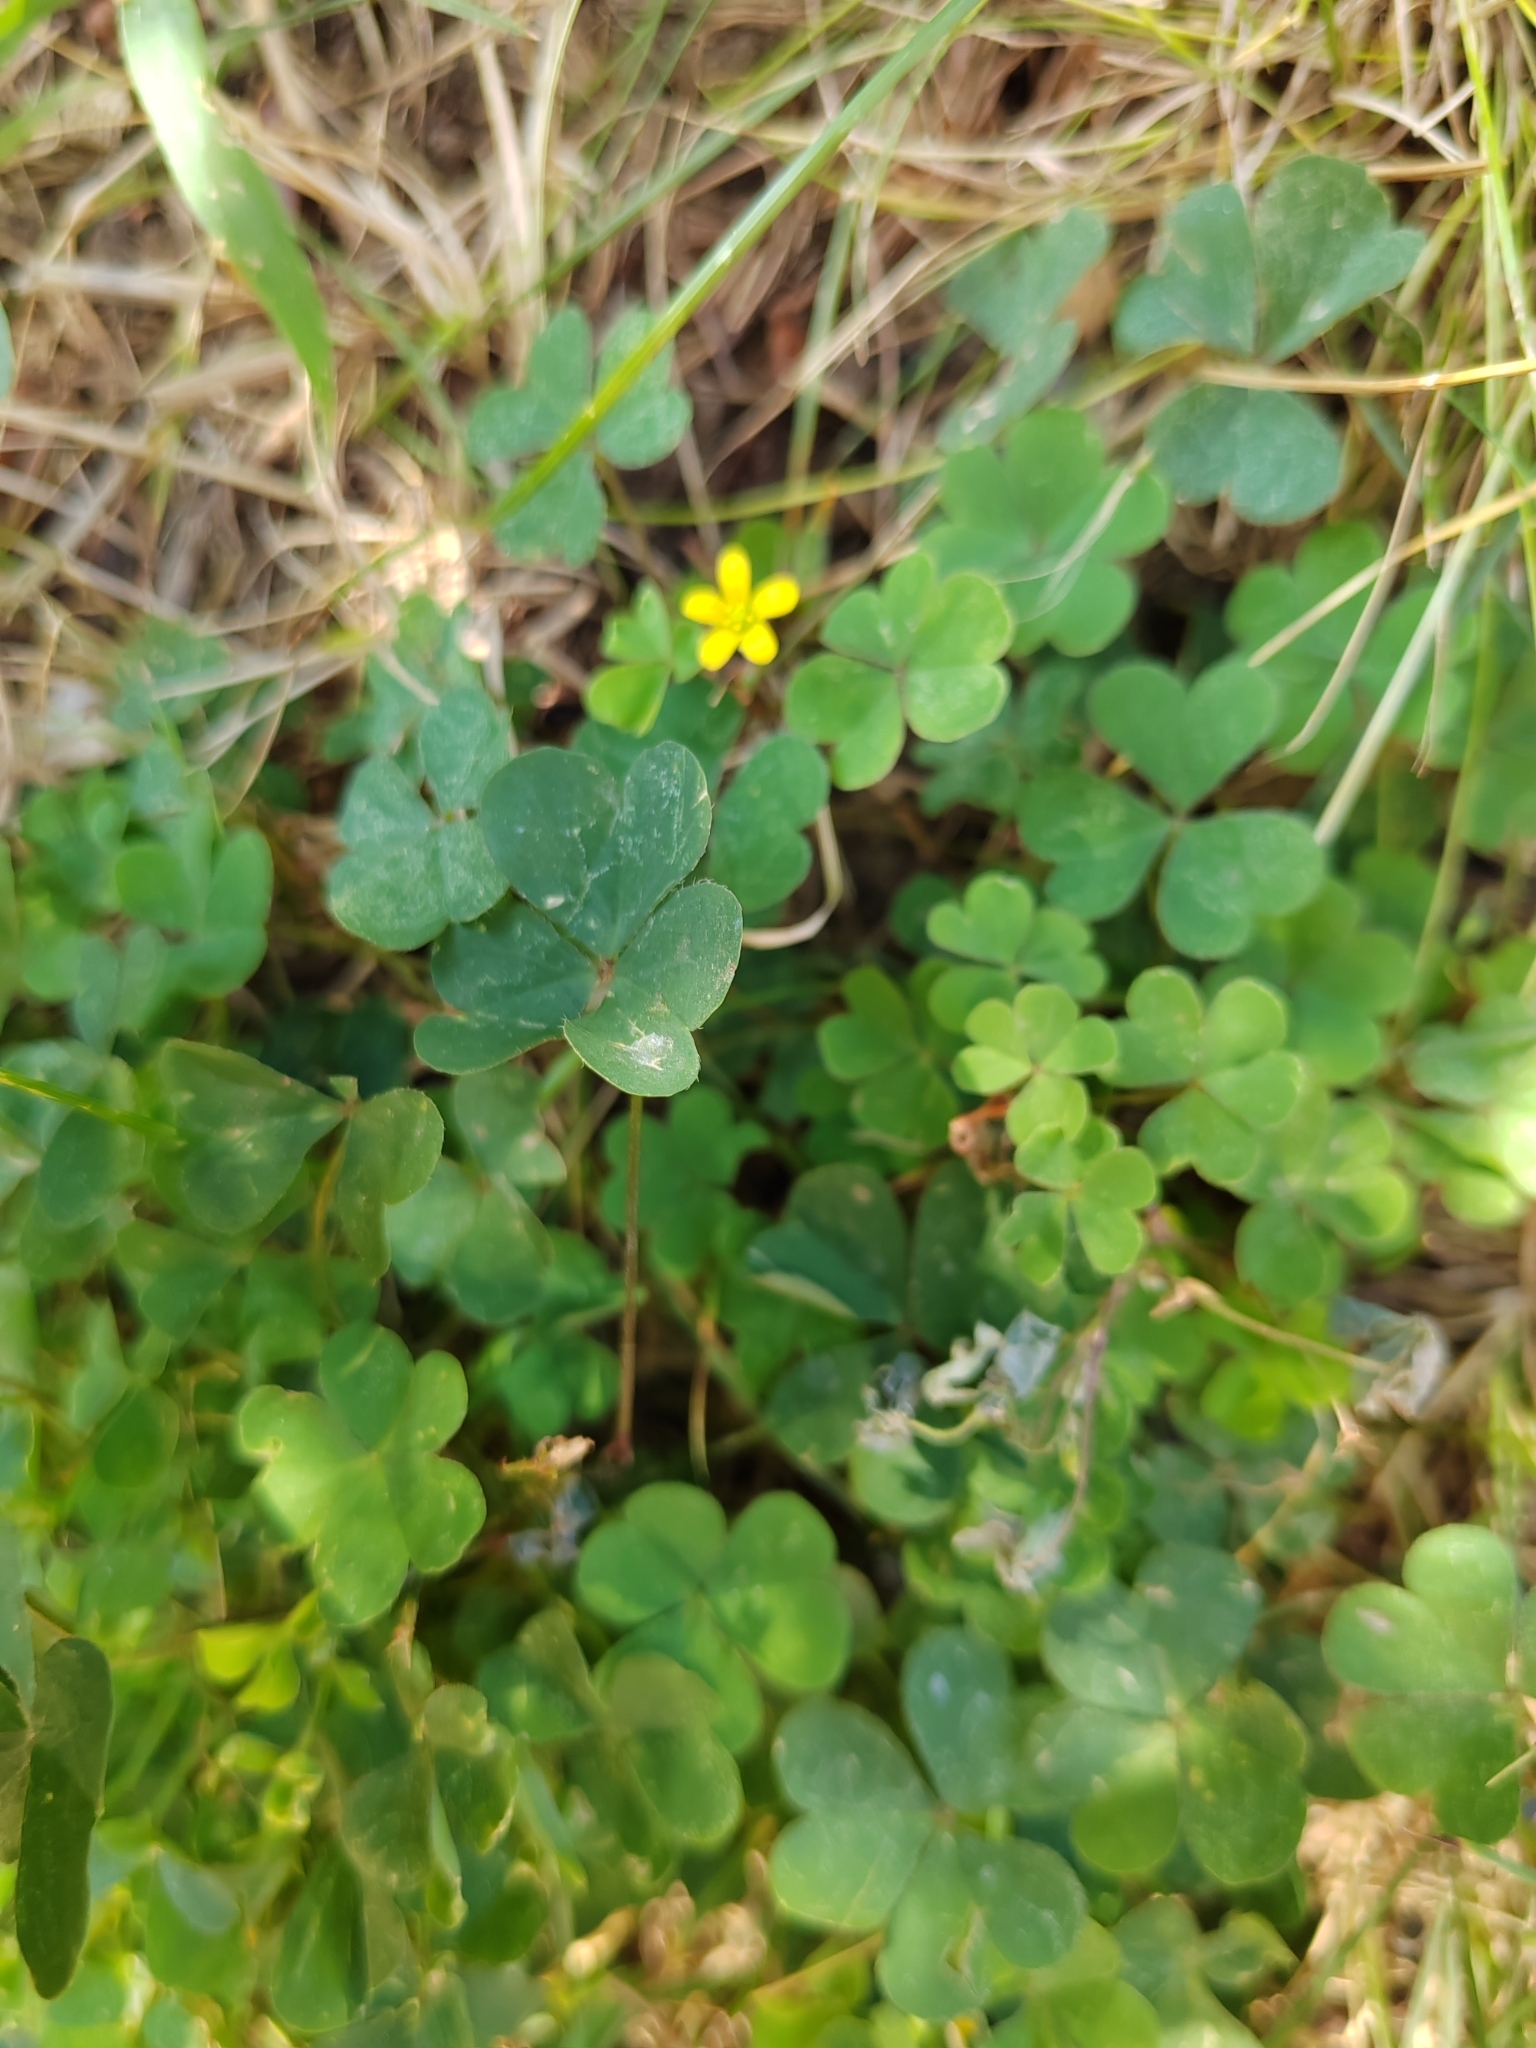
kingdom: Plantae
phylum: Tracheophyta
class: Magnoliopsida
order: Oxalidales
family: Oxalidaceae
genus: Oxalis
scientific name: Oxalis corniculata
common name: Procumbent yellow-sorrel
